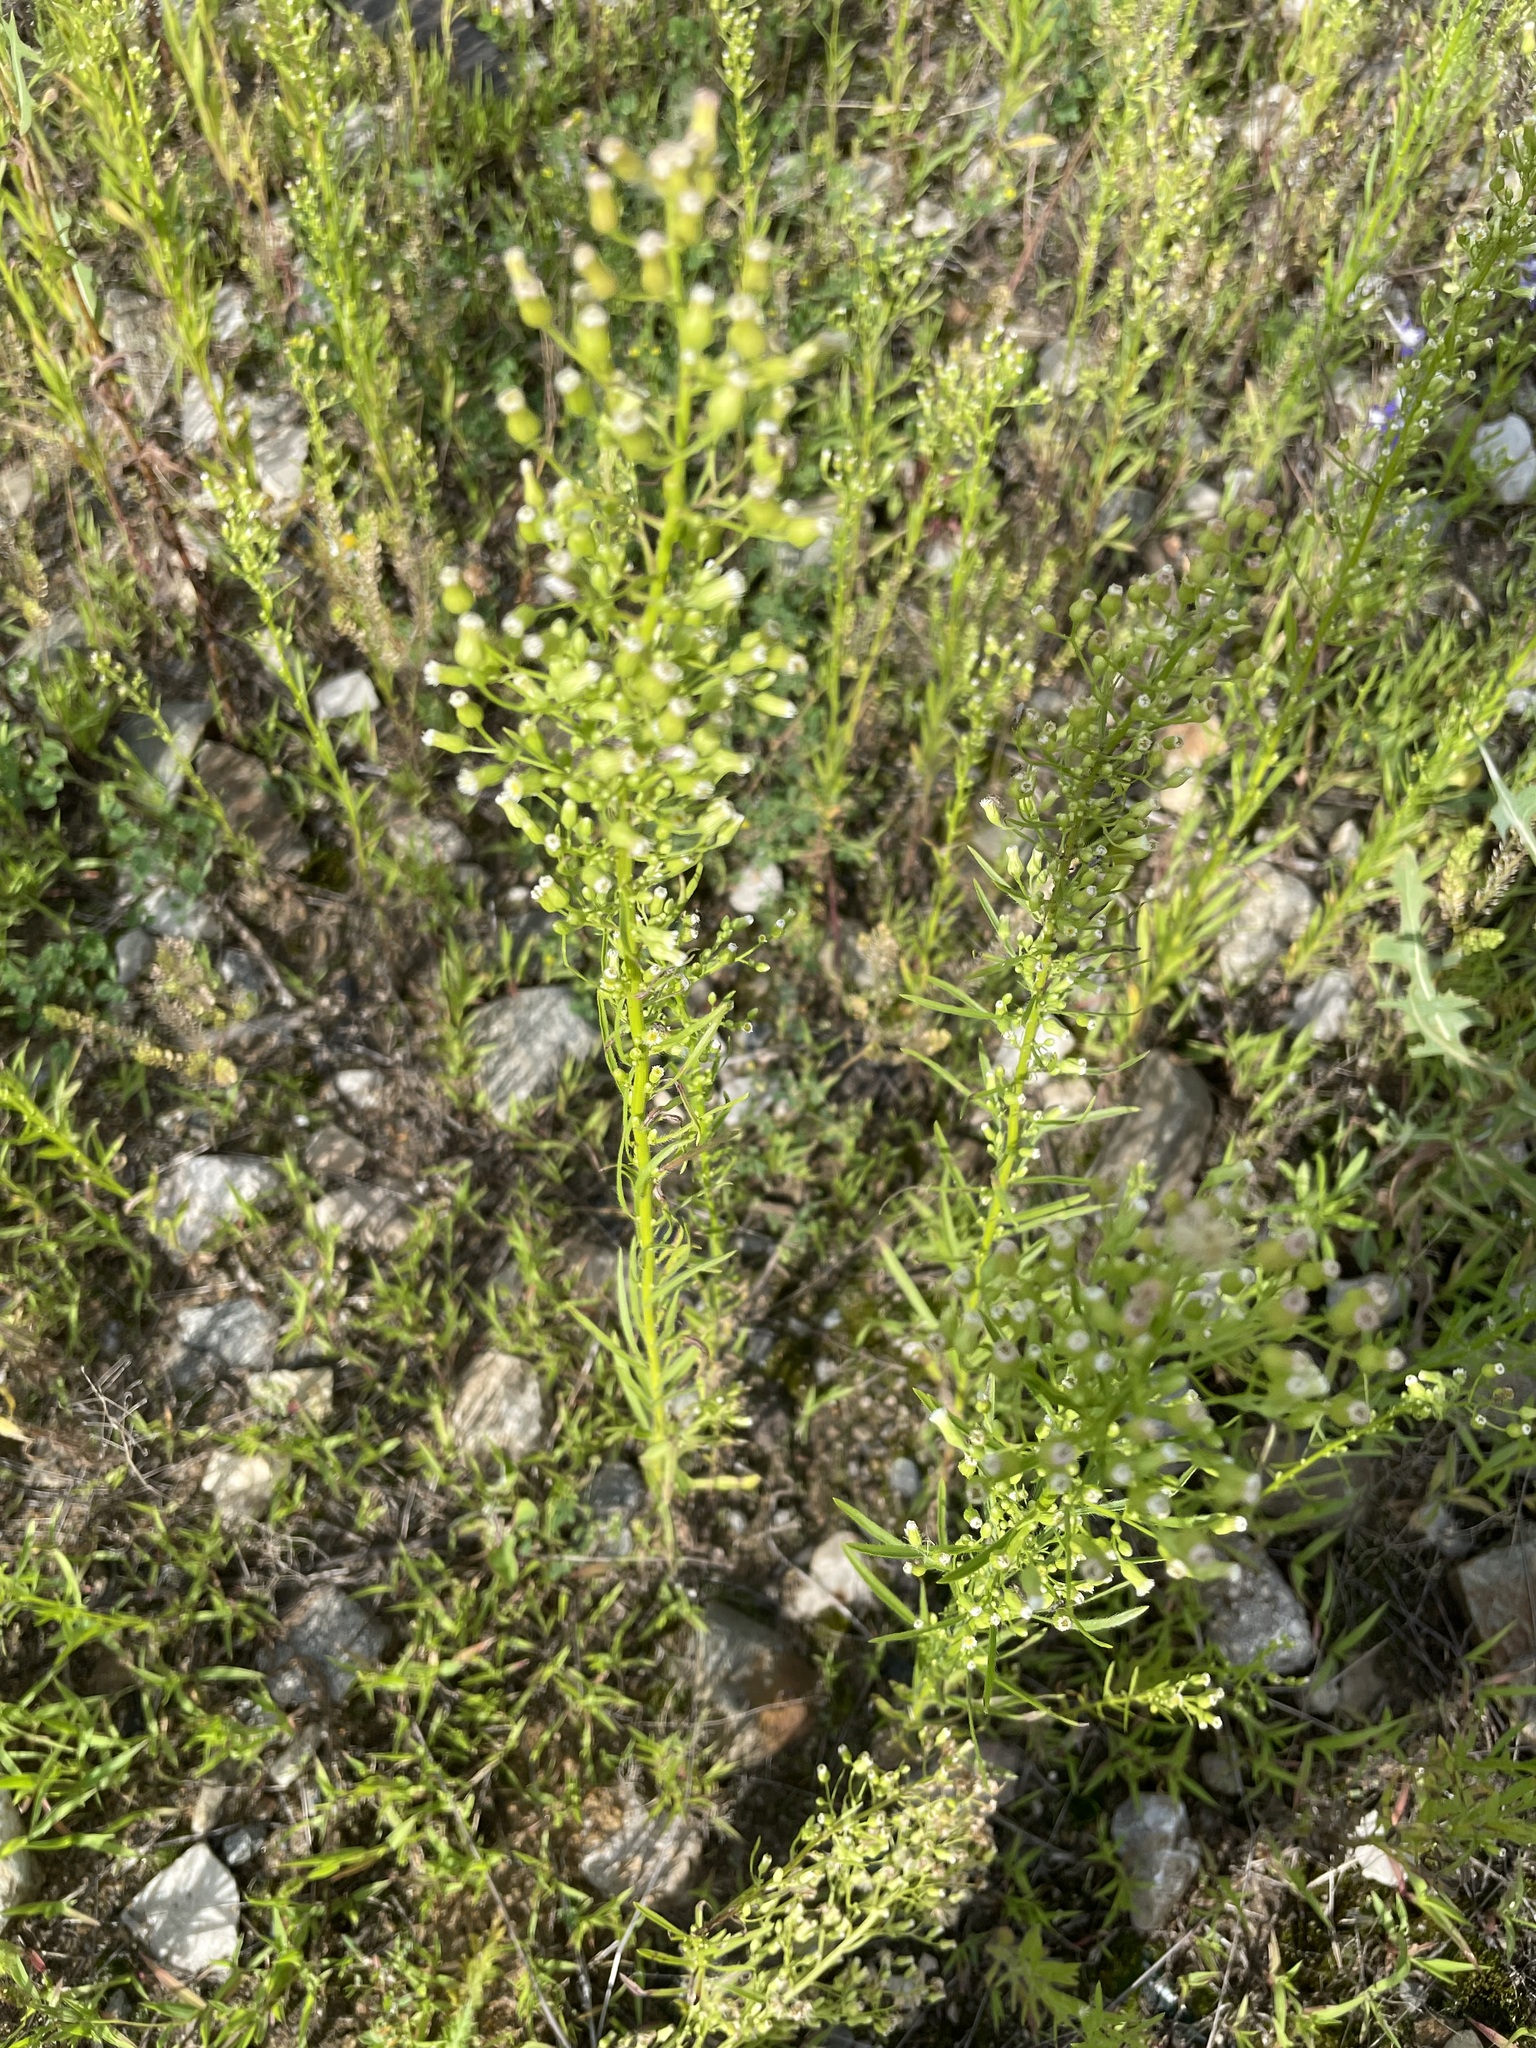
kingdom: Plantae
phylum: Tracheophyta
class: Magnoliopsida
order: Asterales
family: Asteraceae
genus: Erigeron
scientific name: Erigeron canadensis
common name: Canadian fleabane
